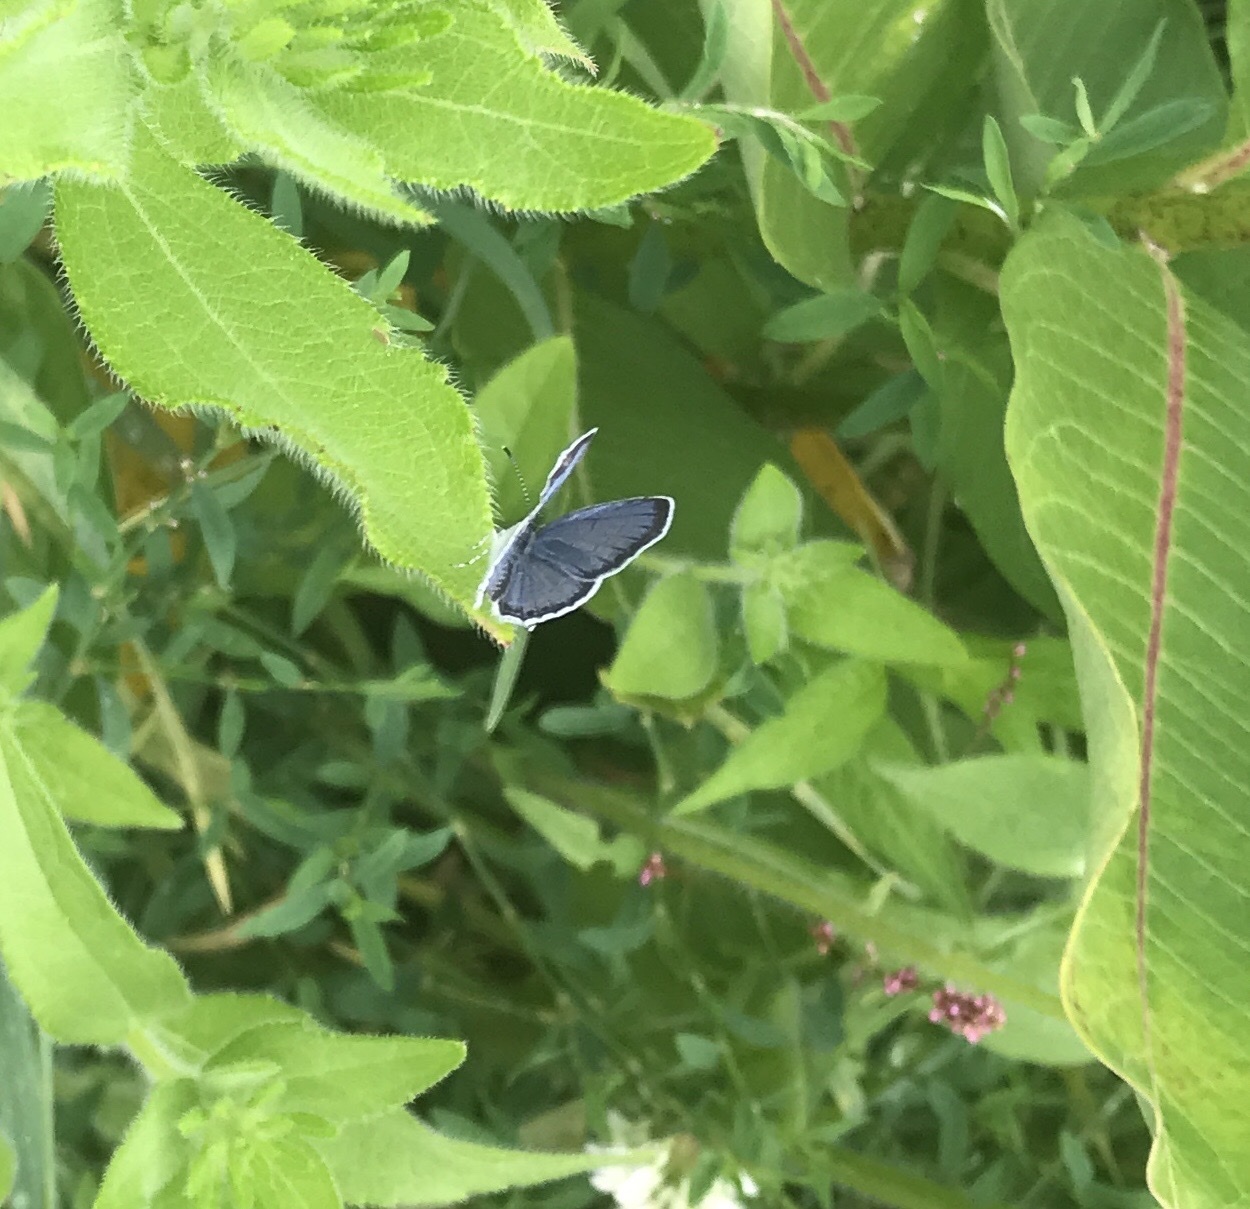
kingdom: Animalia
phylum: Arthropoda
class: Insecta
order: Lepidoptera
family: Lycaenidae
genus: Elkalyce
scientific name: Elkalyce comyntas
